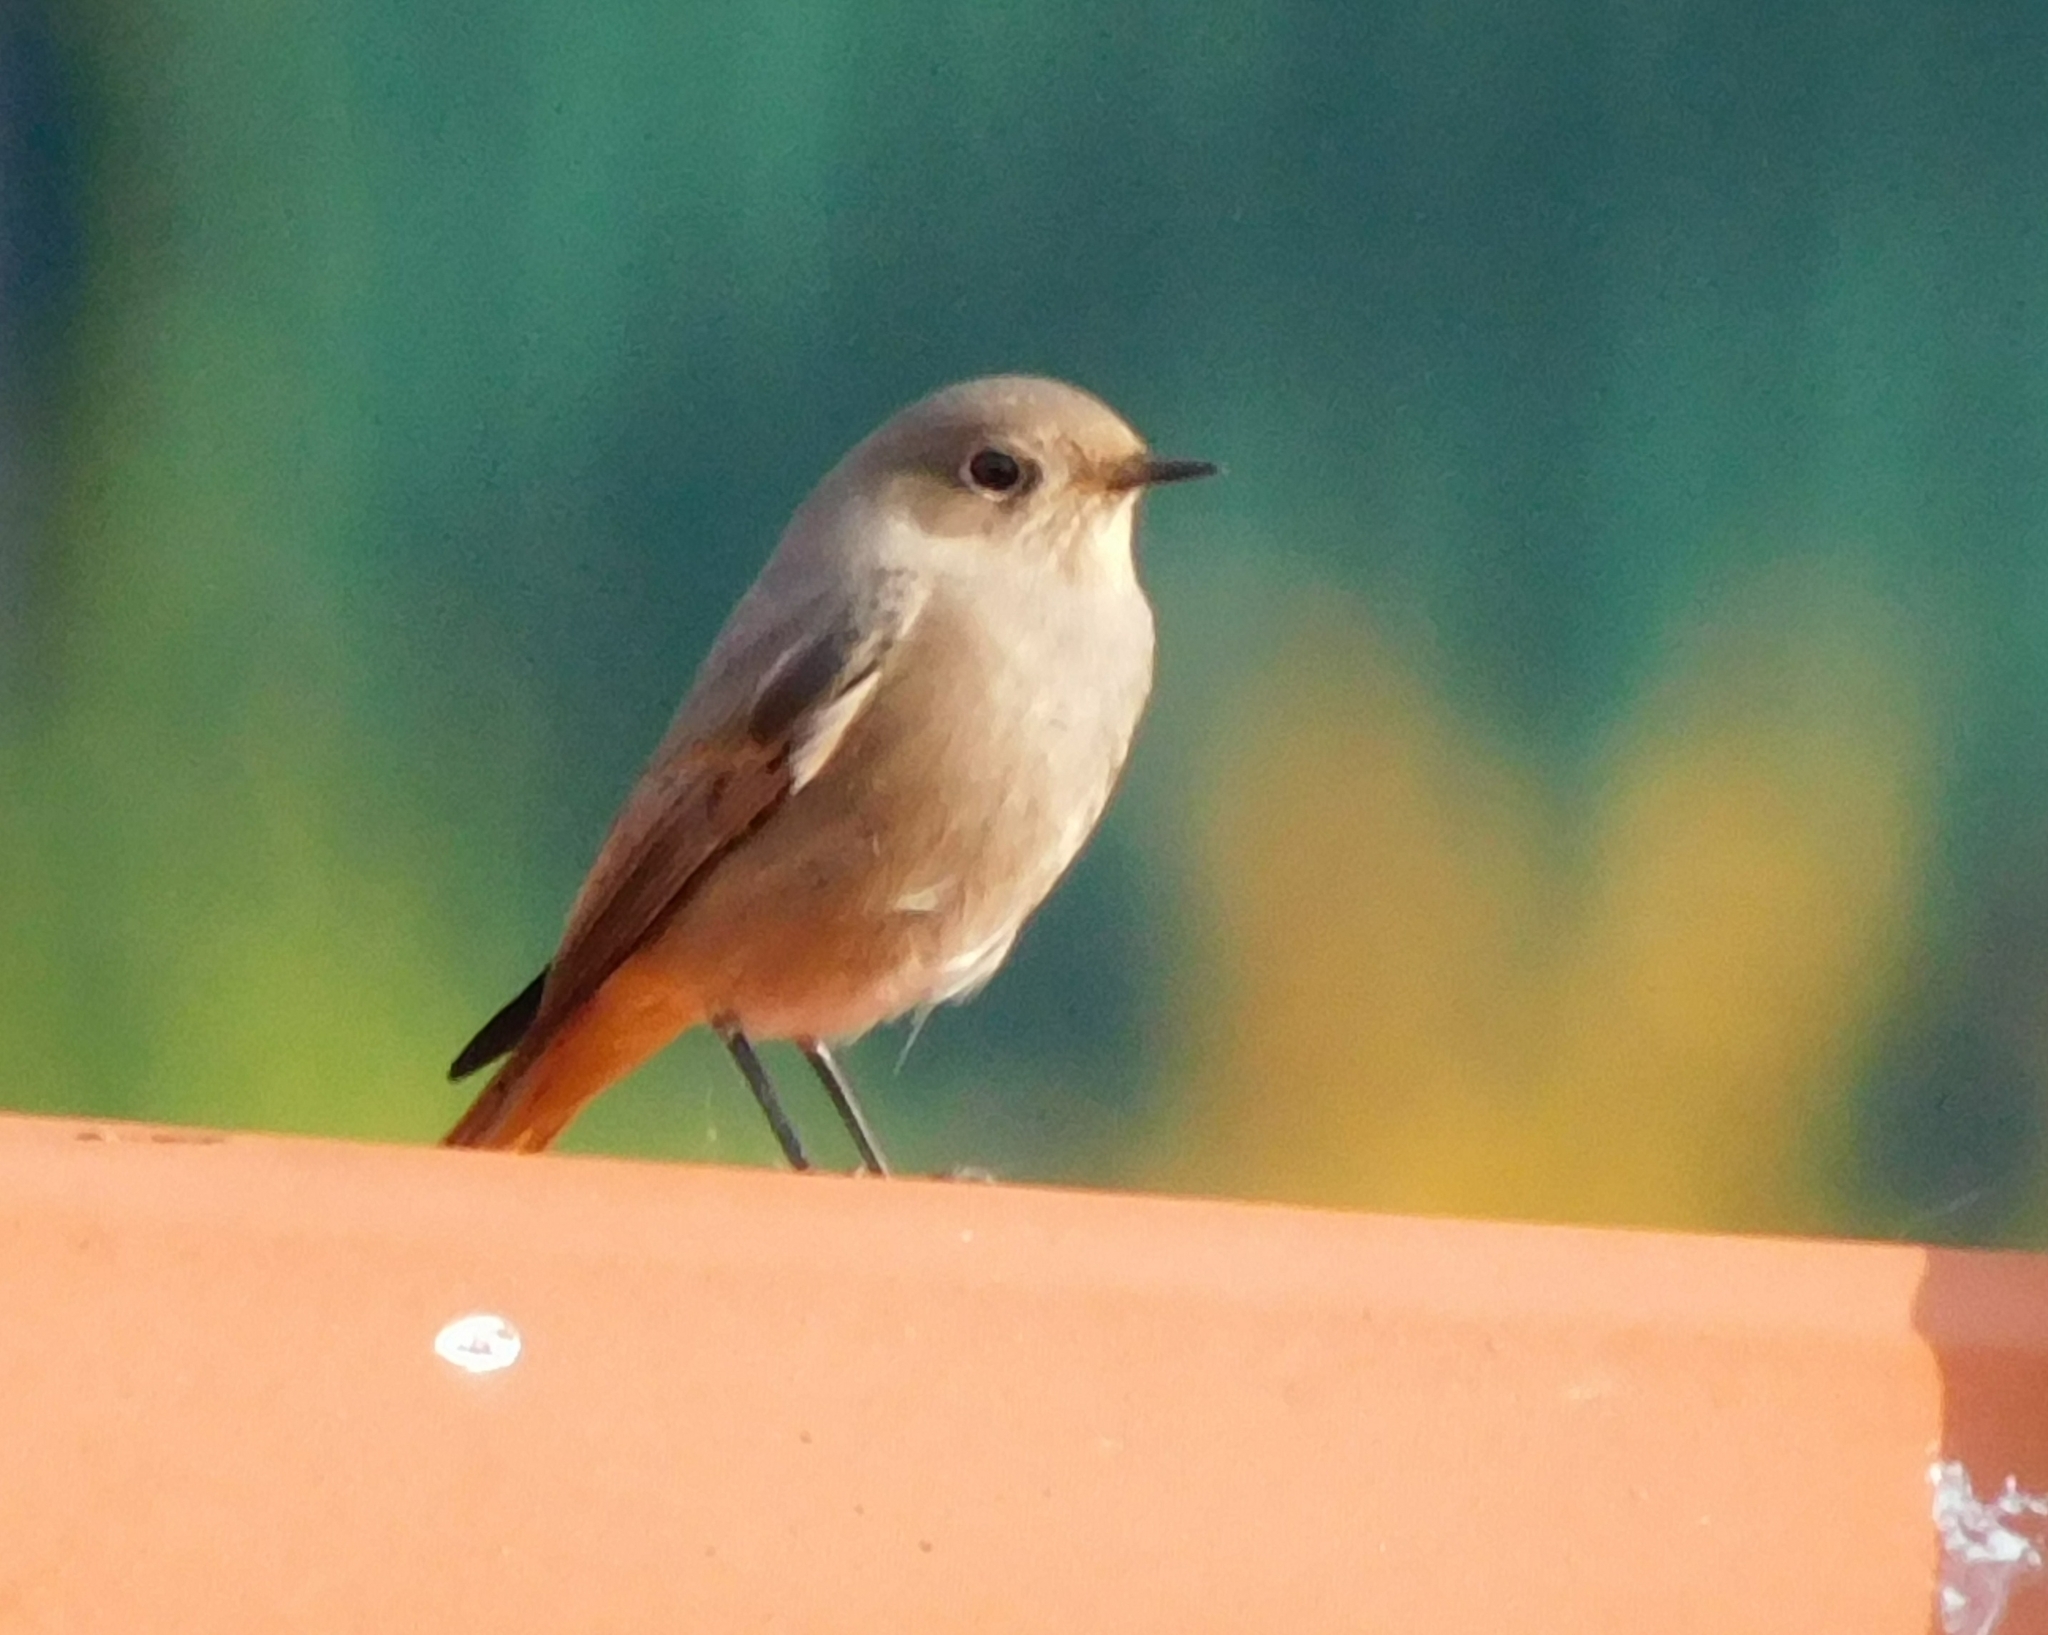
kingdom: Animalia
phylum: Chordata
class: Aves
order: Passeriformes
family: Muscicapidae
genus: Phoenicurus
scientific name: Phoenicurus ochruros
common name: Black redstart
